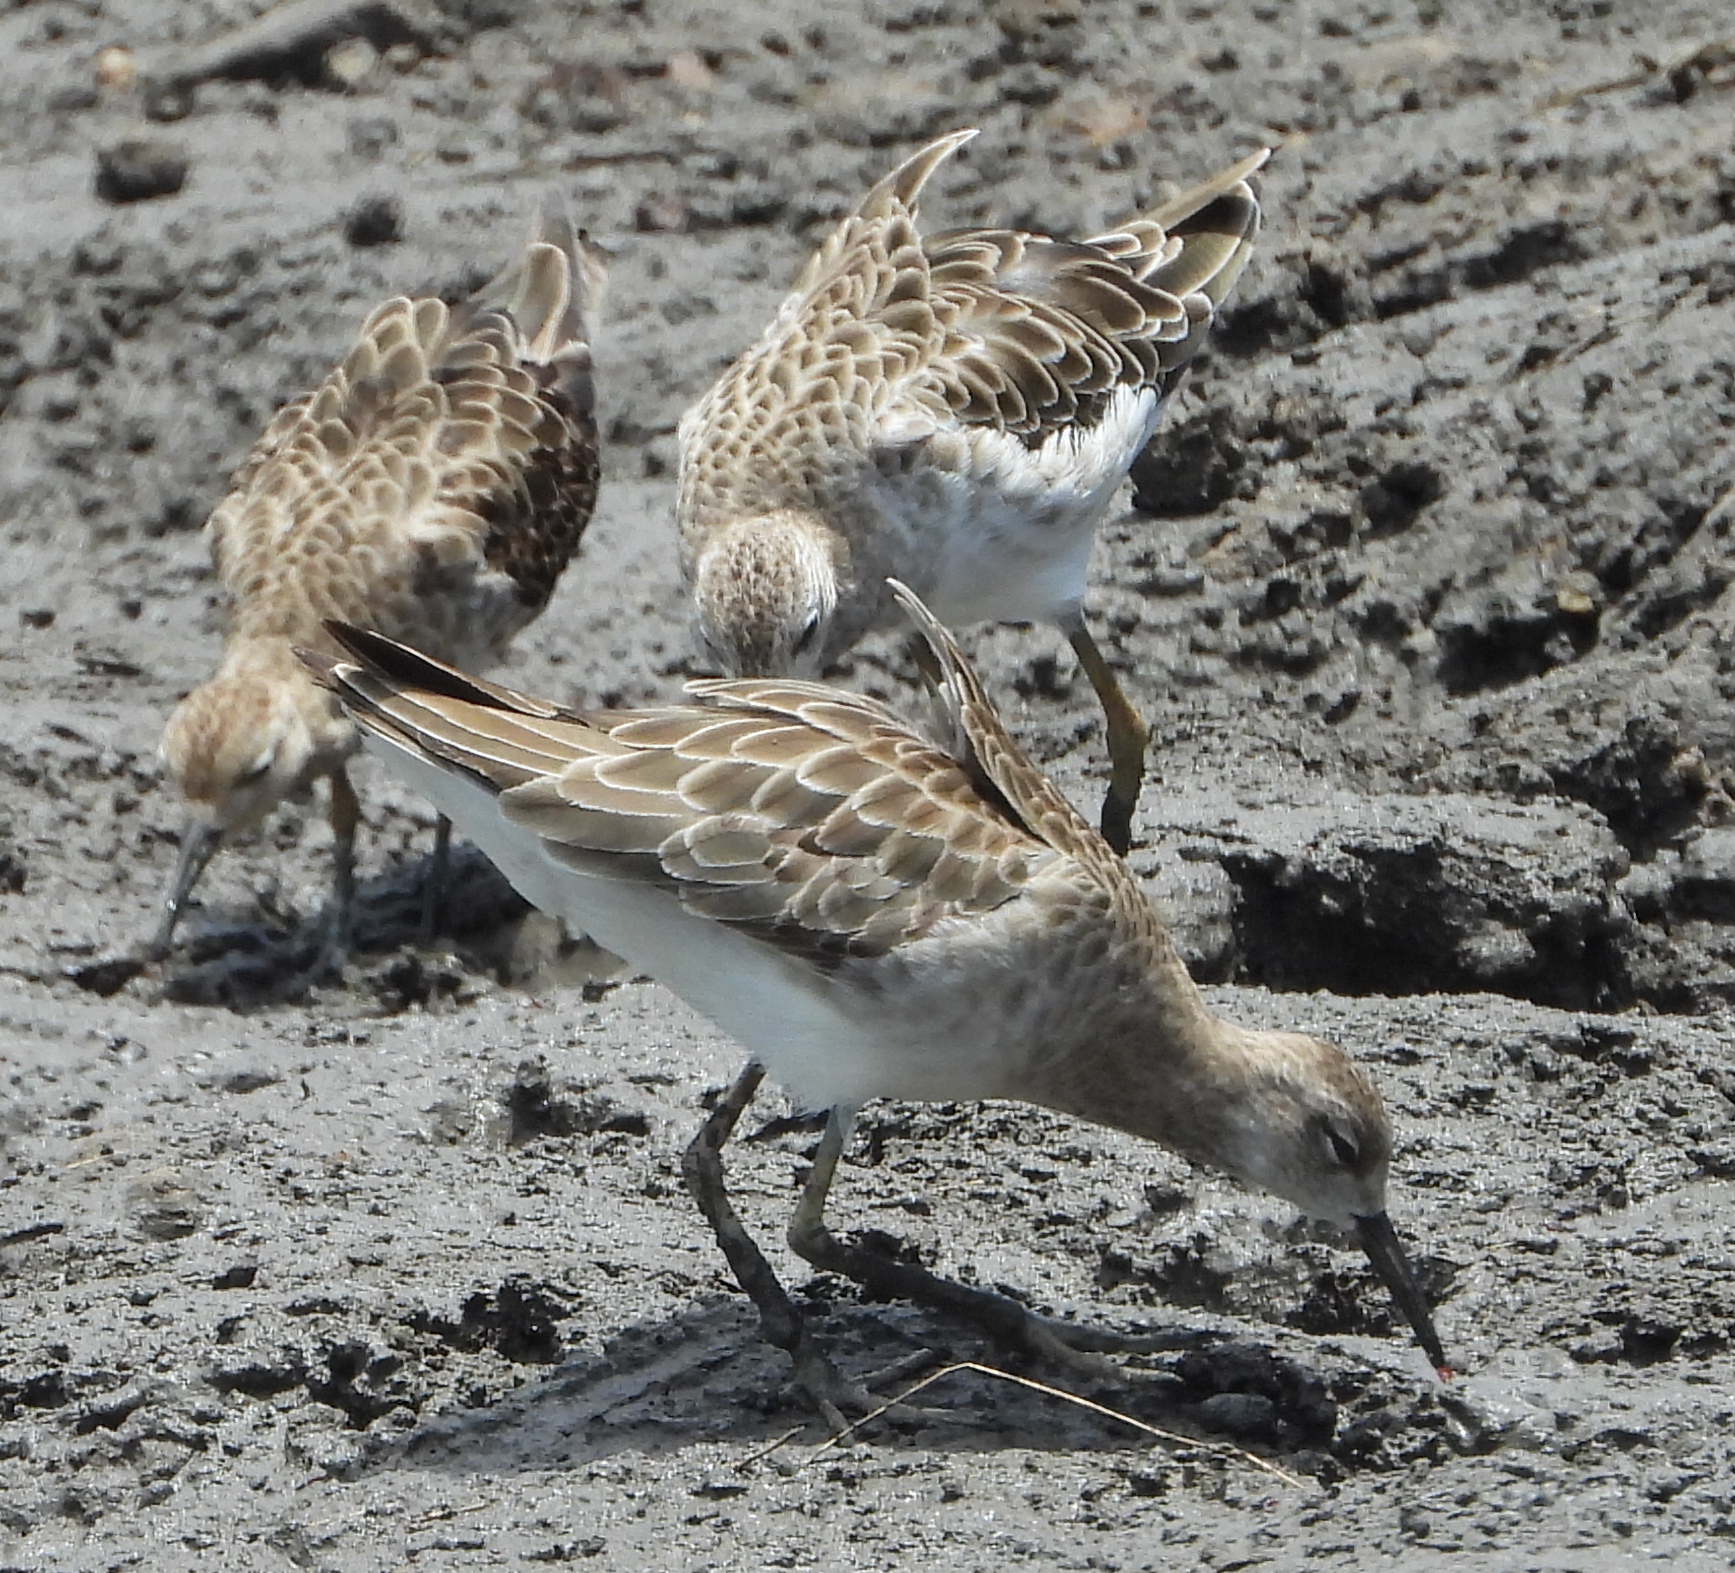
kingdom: Animalia
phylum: Chordata
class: Aves
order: Charadriiformes
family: Scolopacidae
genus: Calidris
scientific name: Calidris pugnax
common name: Ruff
